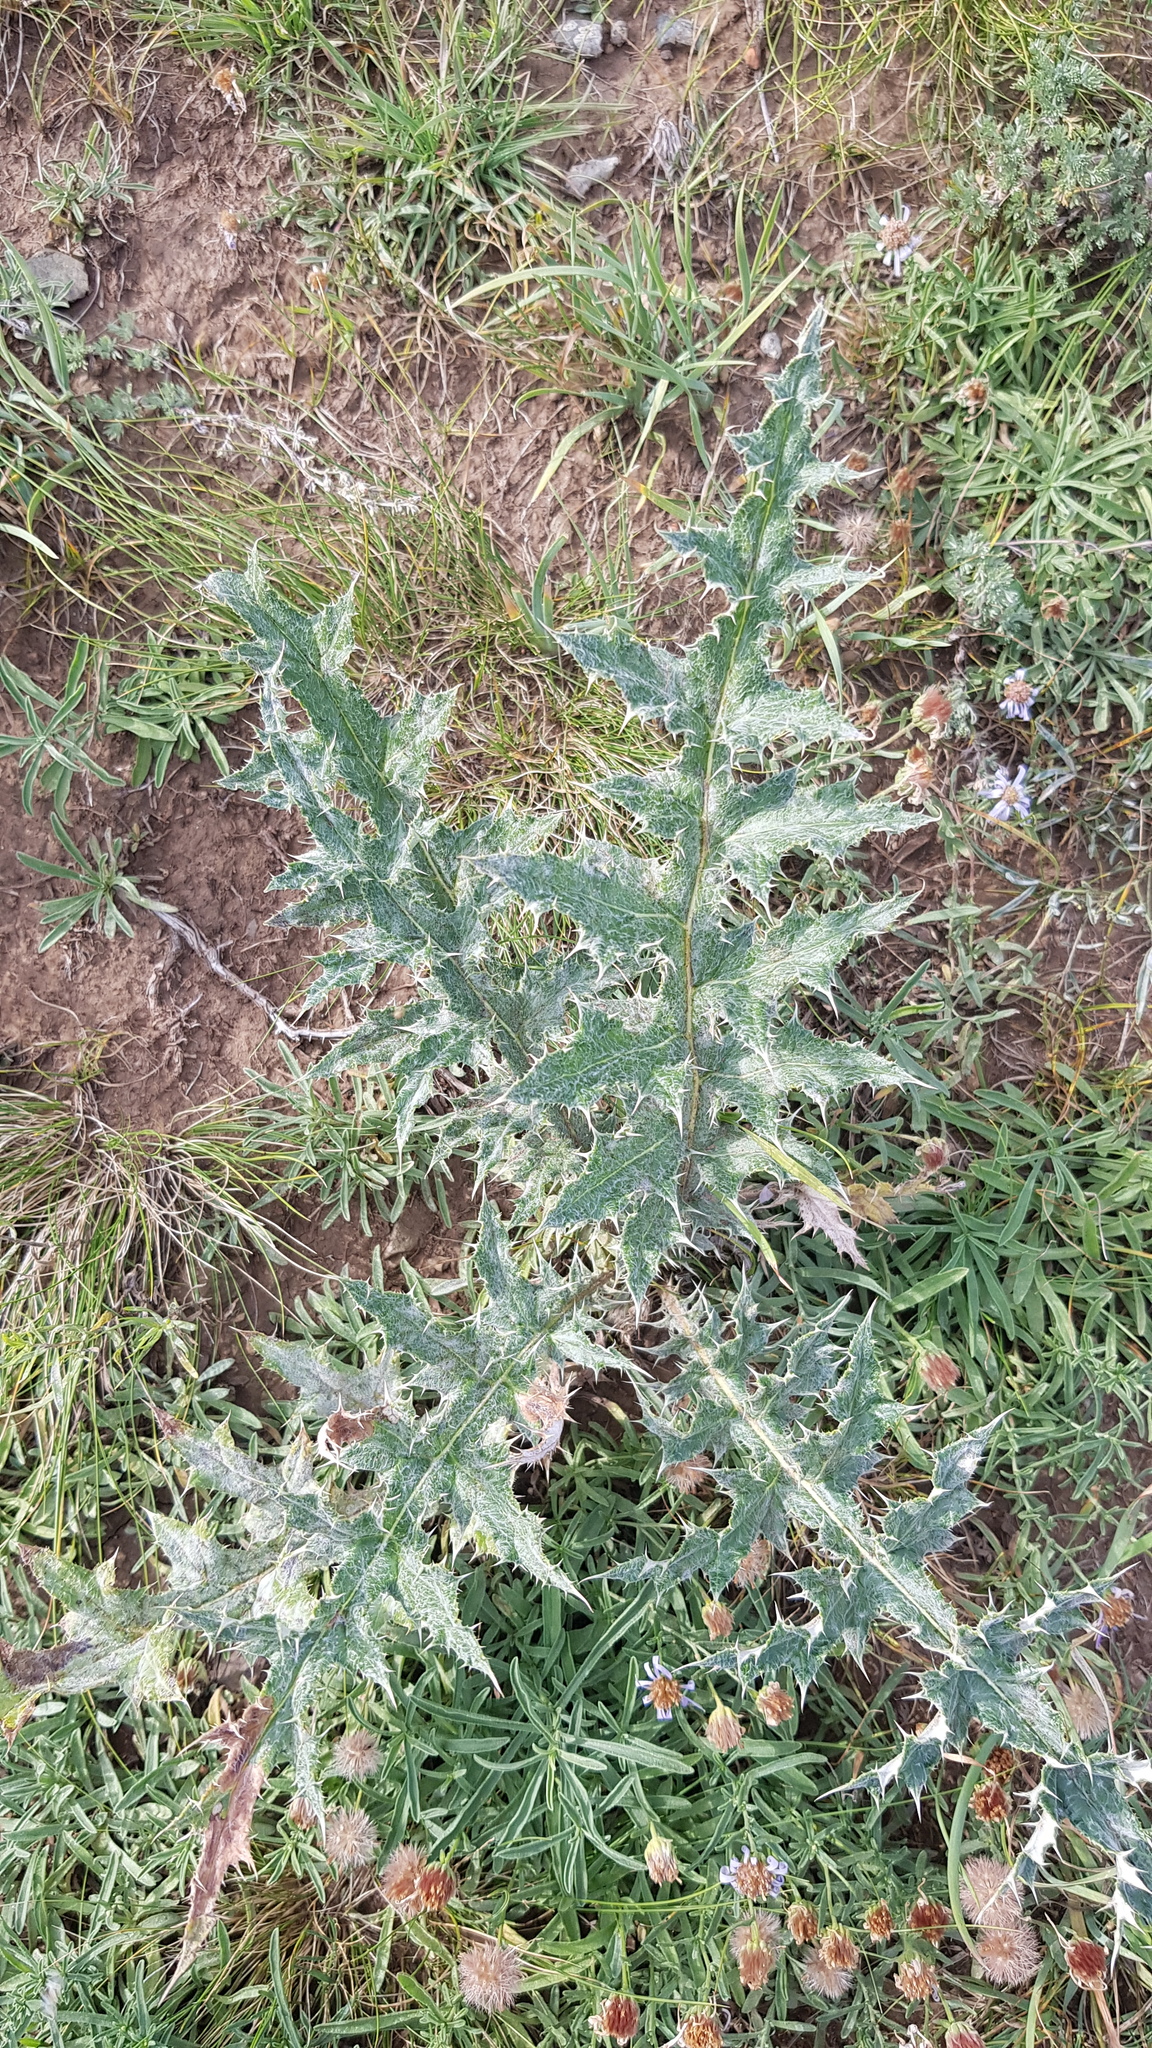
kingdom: Plantae
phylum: Tracheophyta
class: Magnoliopsida
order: Asterales
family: Asteraceae
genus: Echinops
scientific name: Echinops davuricus
